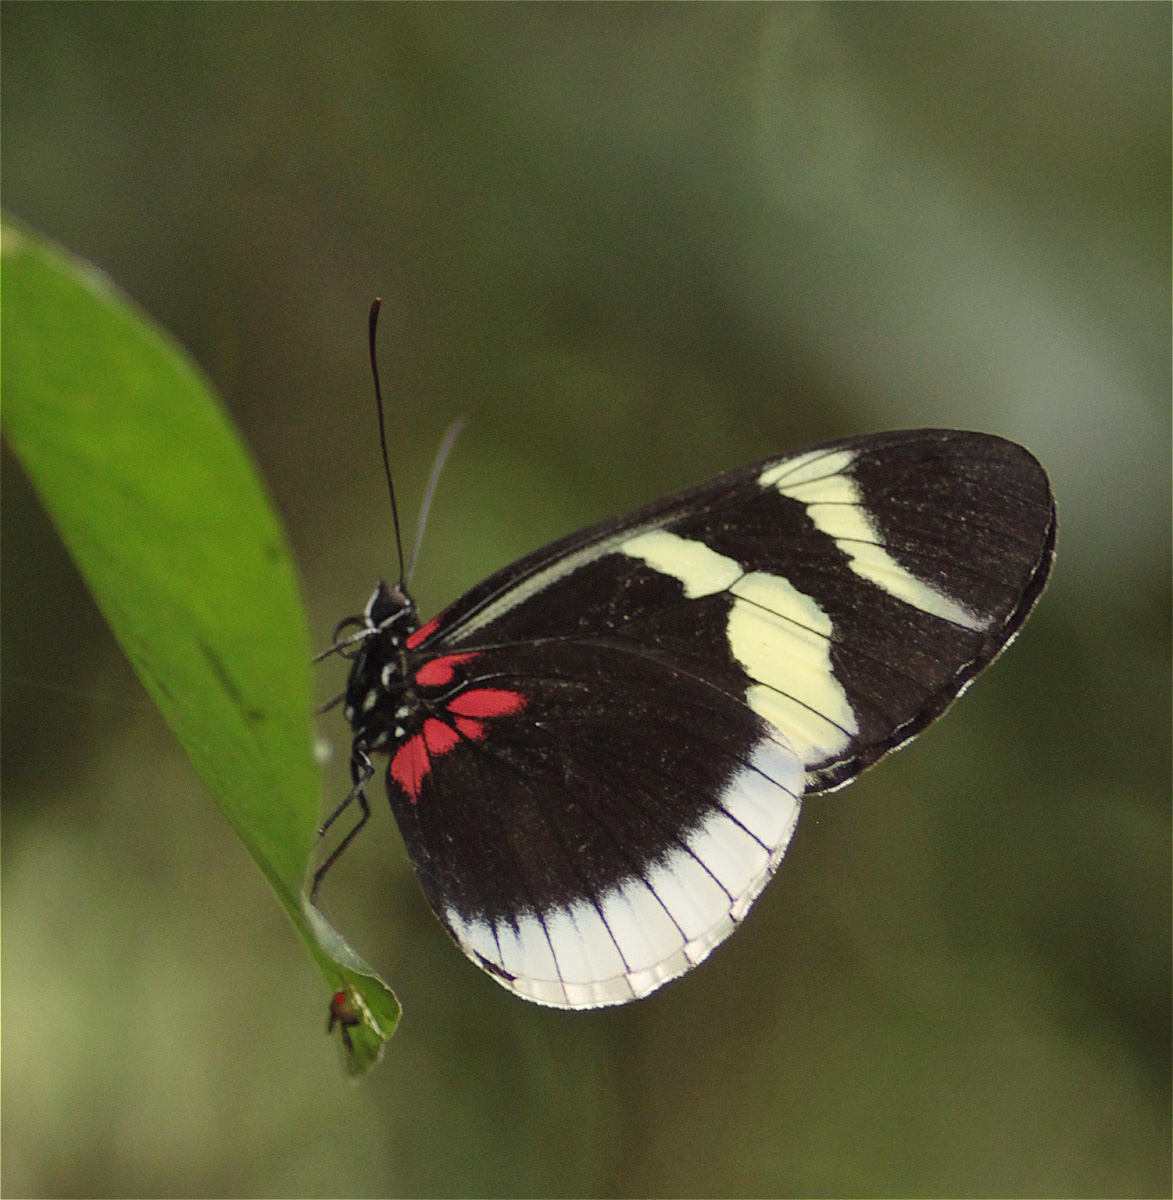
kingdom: Animalia
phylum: Arthropoda
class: Insecta
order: Lepidoptera
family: Nymphalidae
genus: Heliconius
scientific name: Heliconius eleuchia
